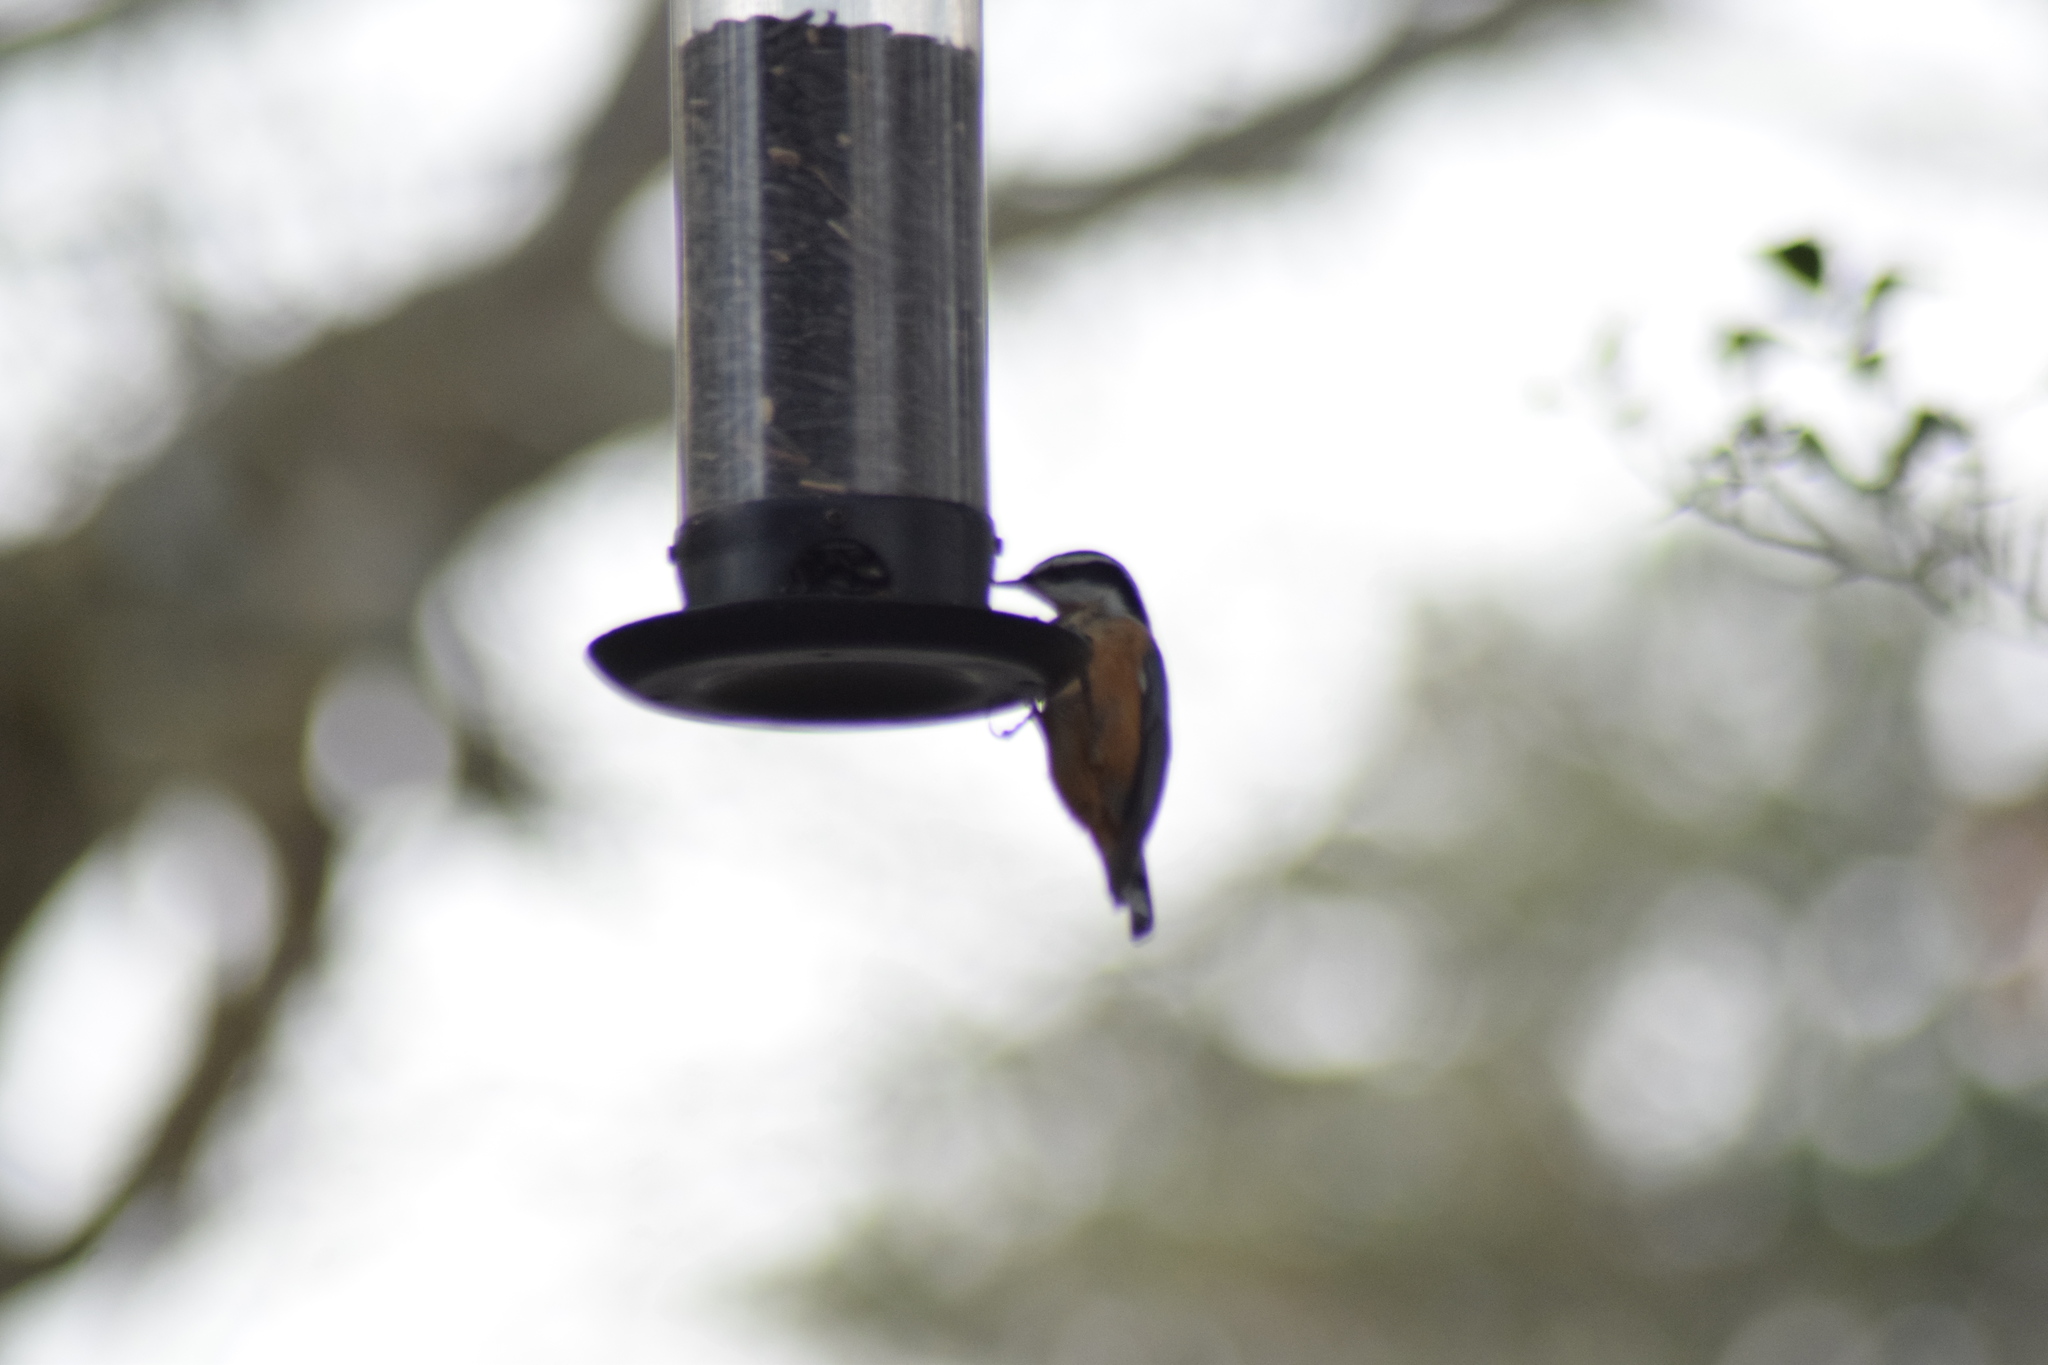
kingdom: Animalia
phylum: Chordata
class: Aves
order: Passeriformes
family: Sittidae
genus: Sitta
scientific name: Sitta canadensis
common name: Red-breasted nuthatch
